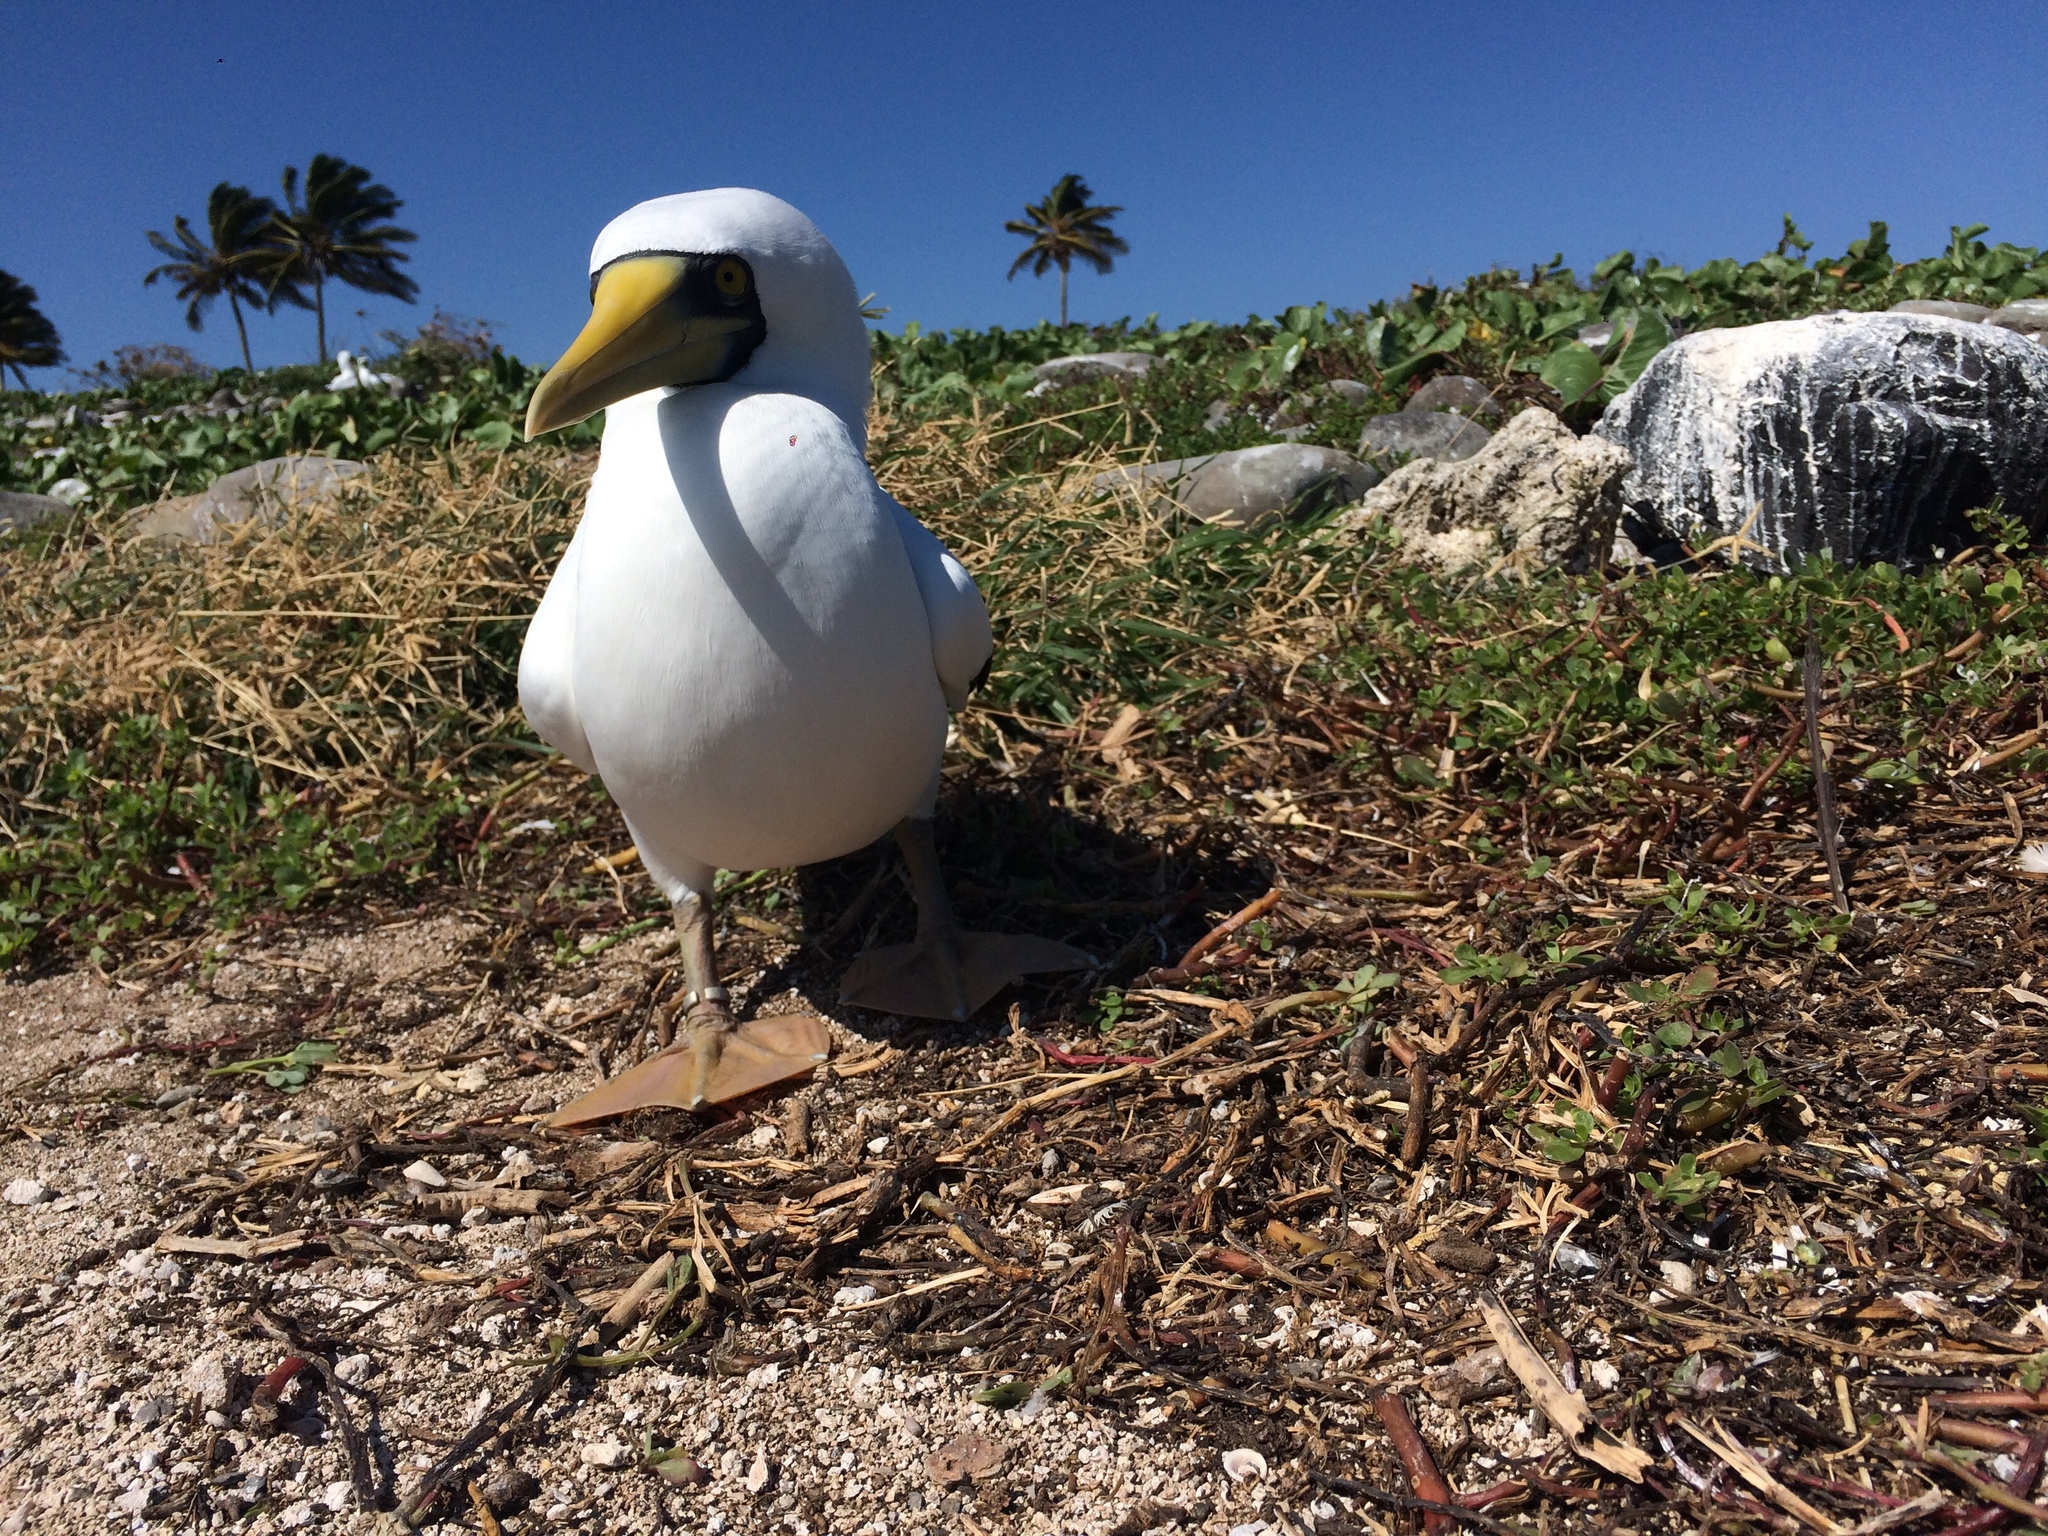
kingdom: Animalia
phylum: Chordata
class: Aves
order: Suliformes
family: Sulidae
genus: Sula
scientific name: Sula dactylatra
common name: Masked booby
